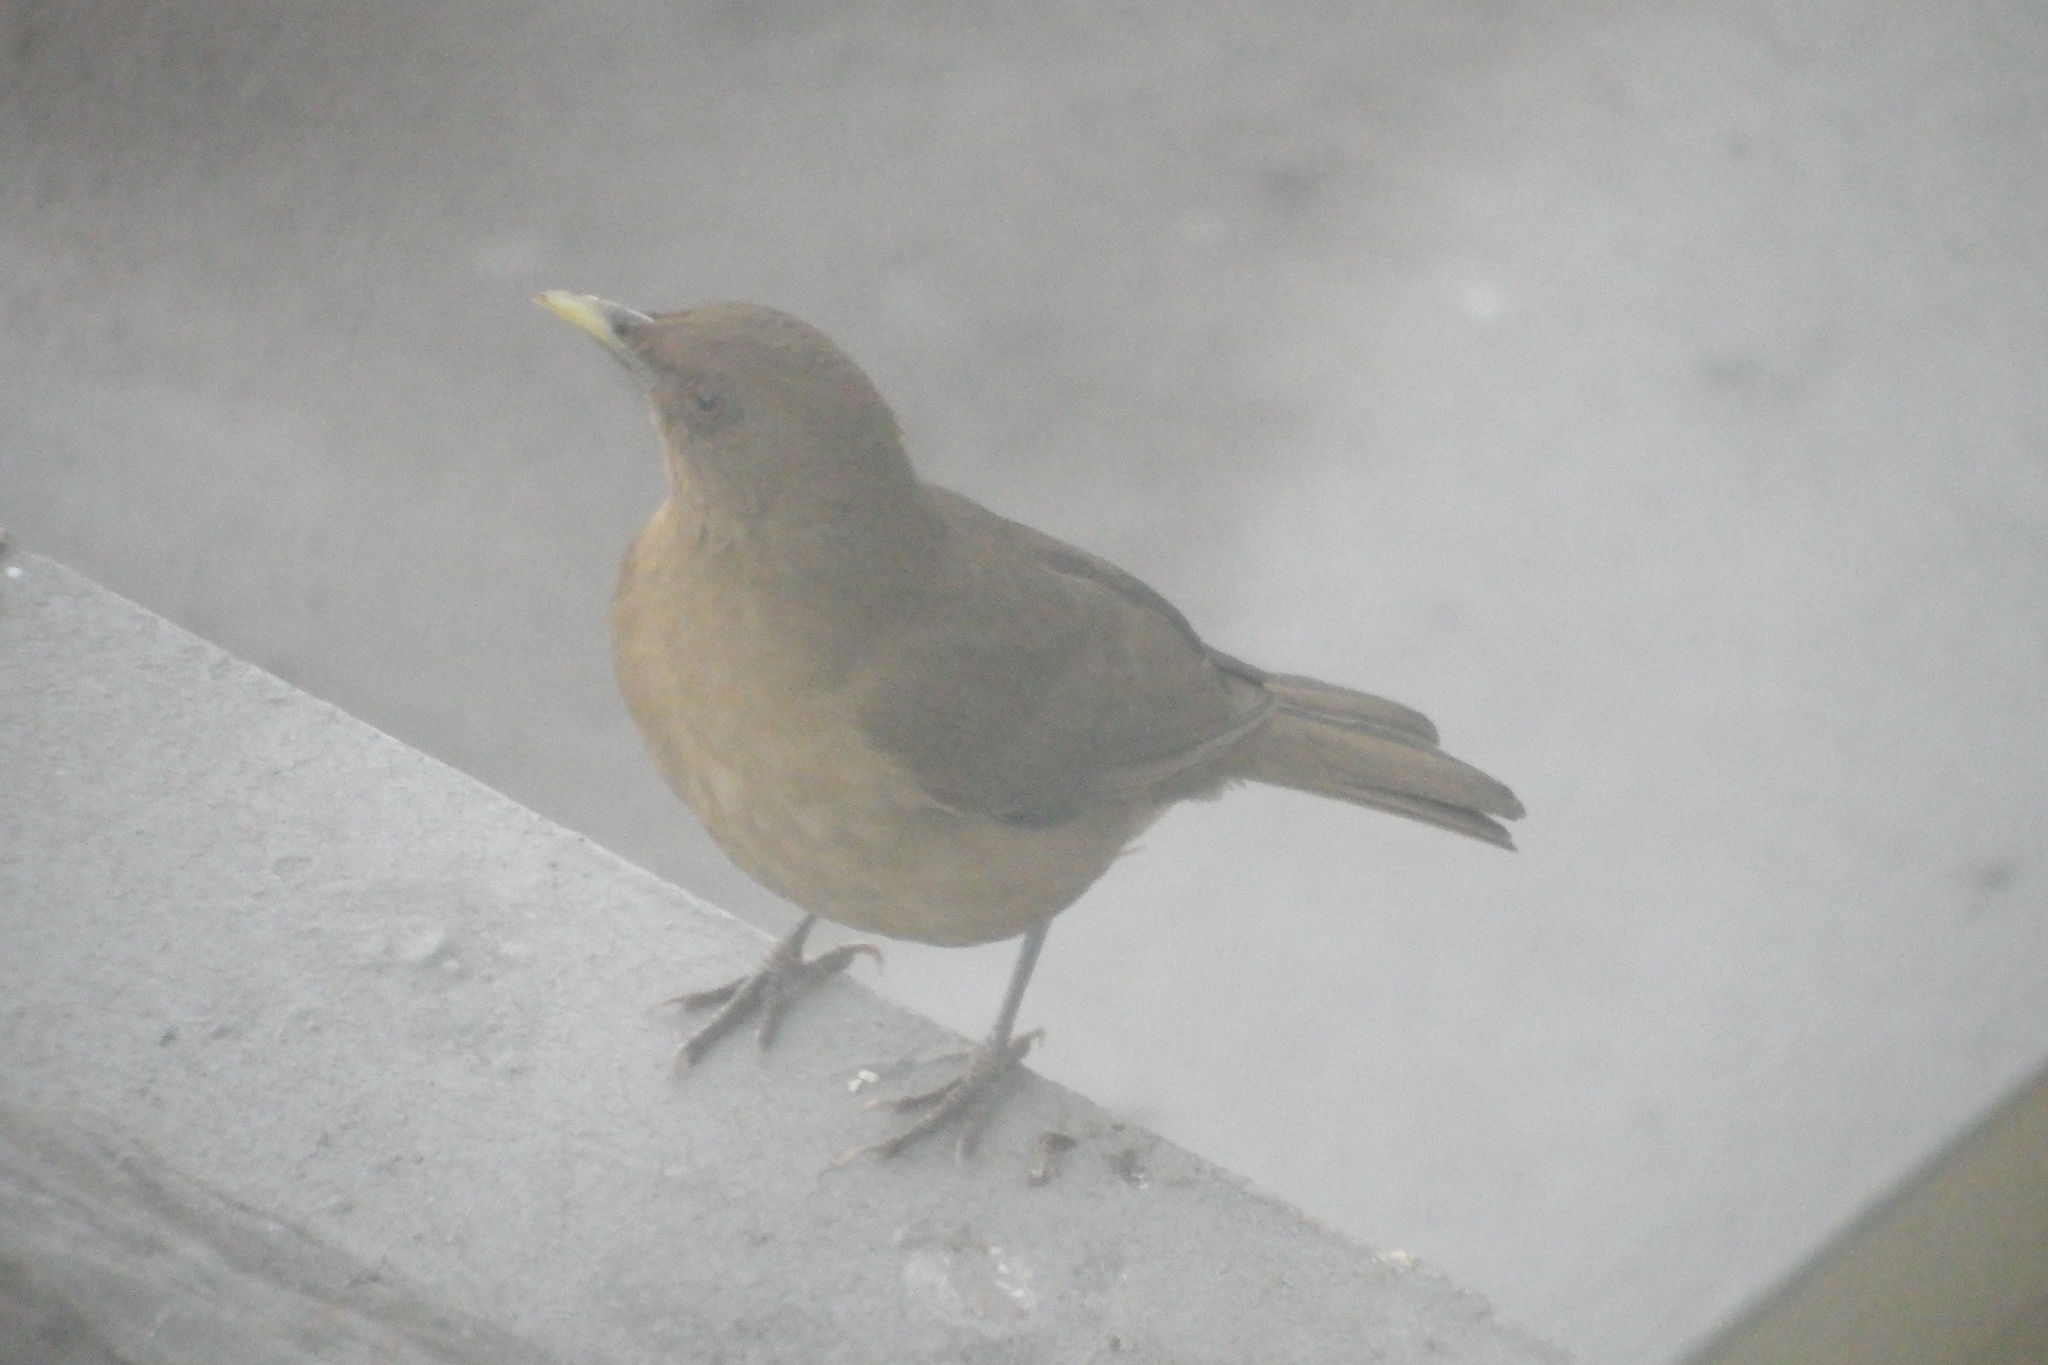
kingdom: Animalia
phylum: Chordata
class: Aves
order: Passeriformes
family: Turdidae
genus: Turdus
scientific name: Turdus grayi
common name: Clay-colored thrush
